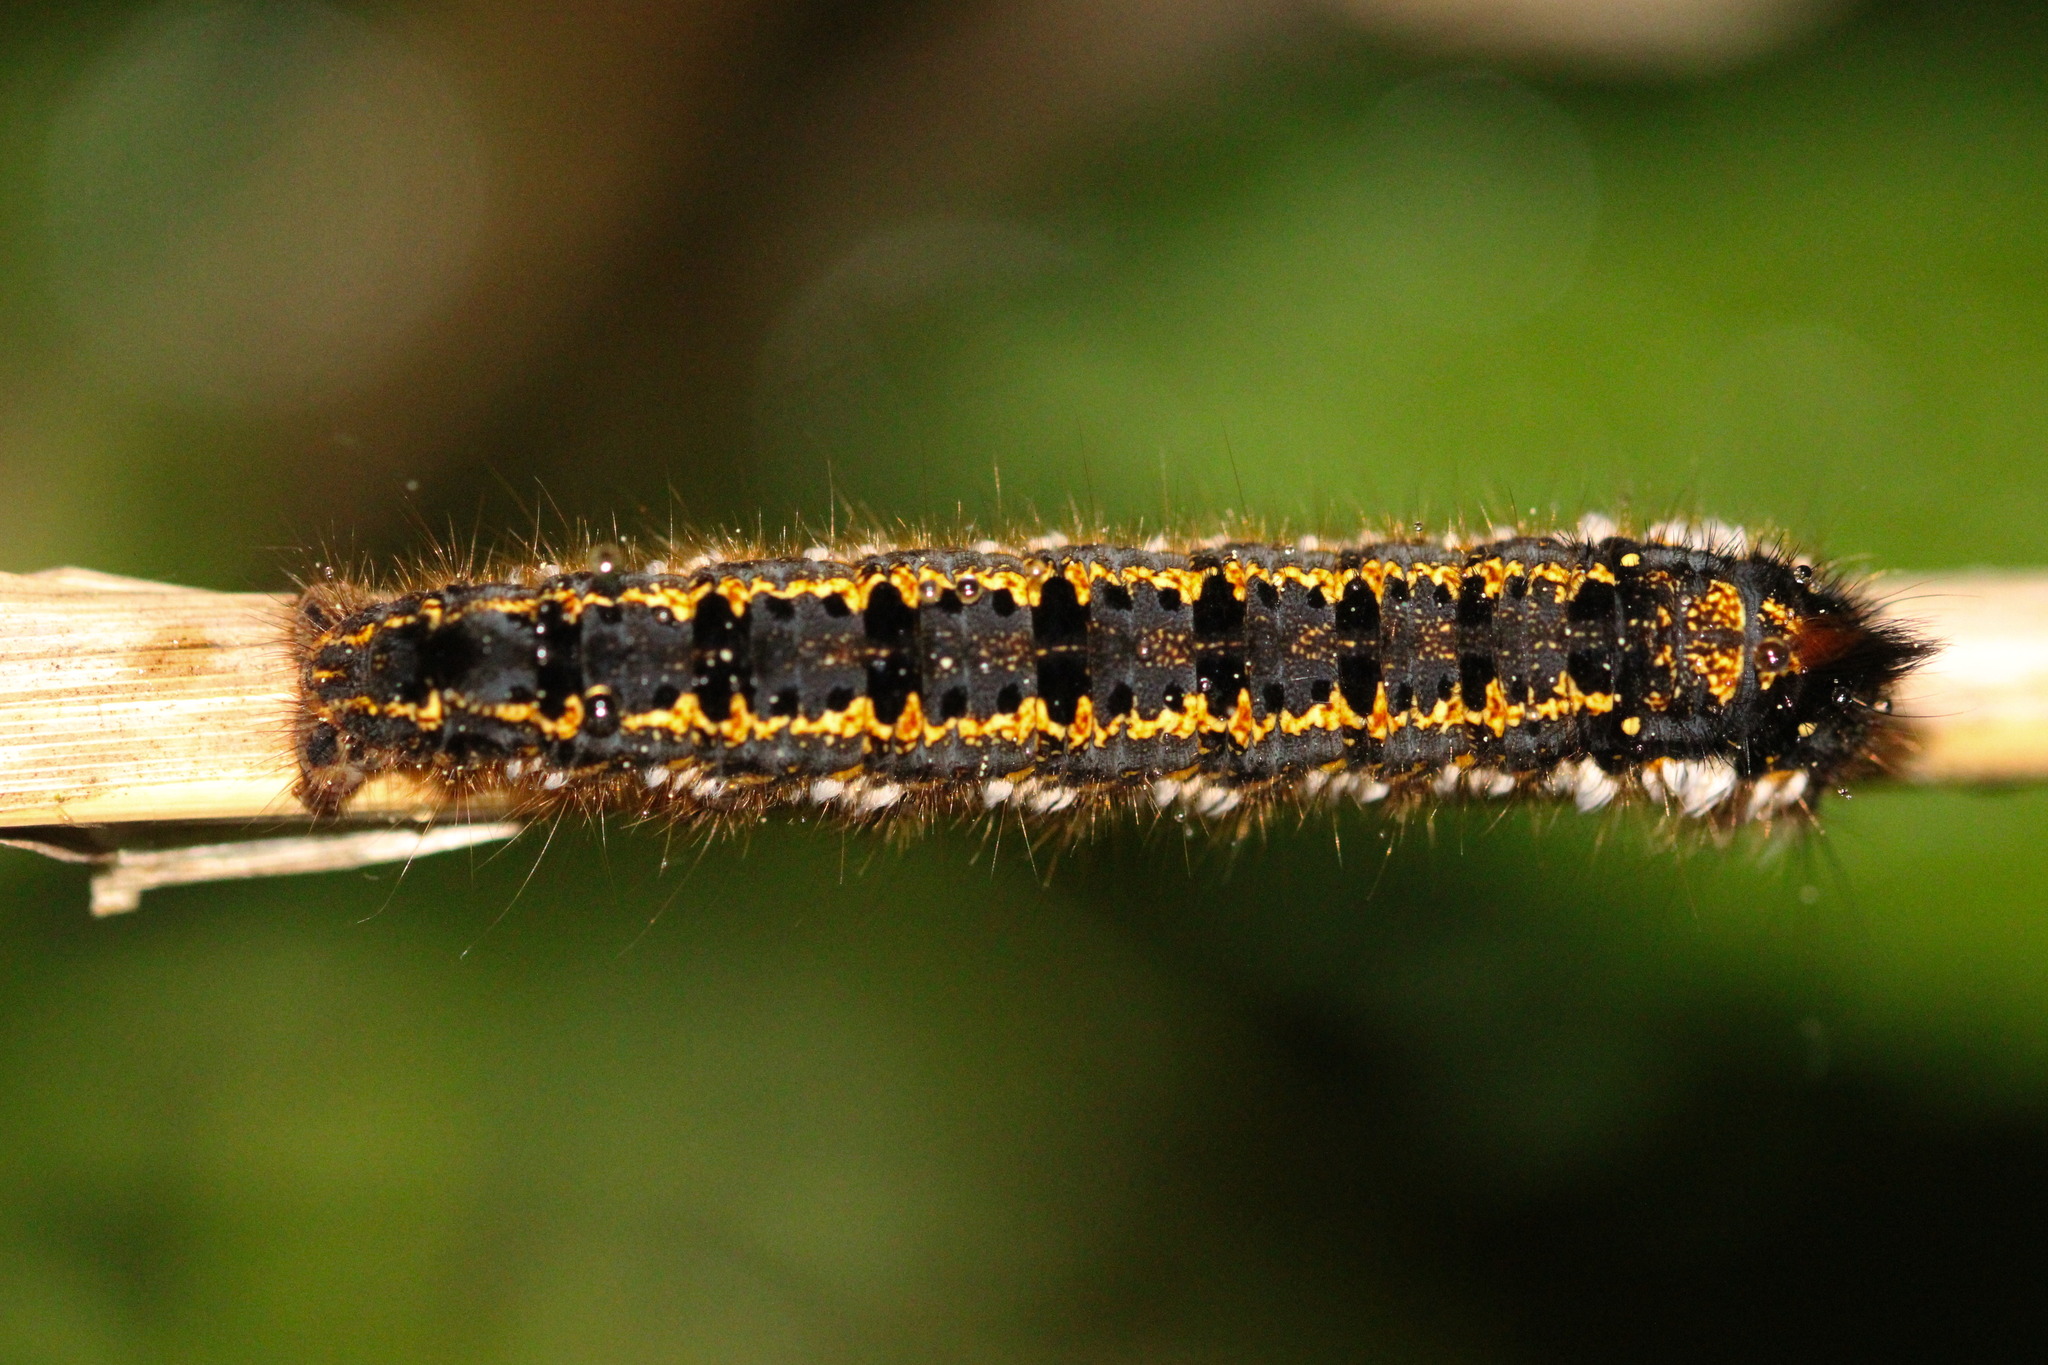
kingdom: Animalia
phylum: Arthropoda
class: Insecta
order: Lepidoptera
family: Lasiocampidae
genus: Euthrix
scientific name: Euthrix potatoria
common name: Drinker
